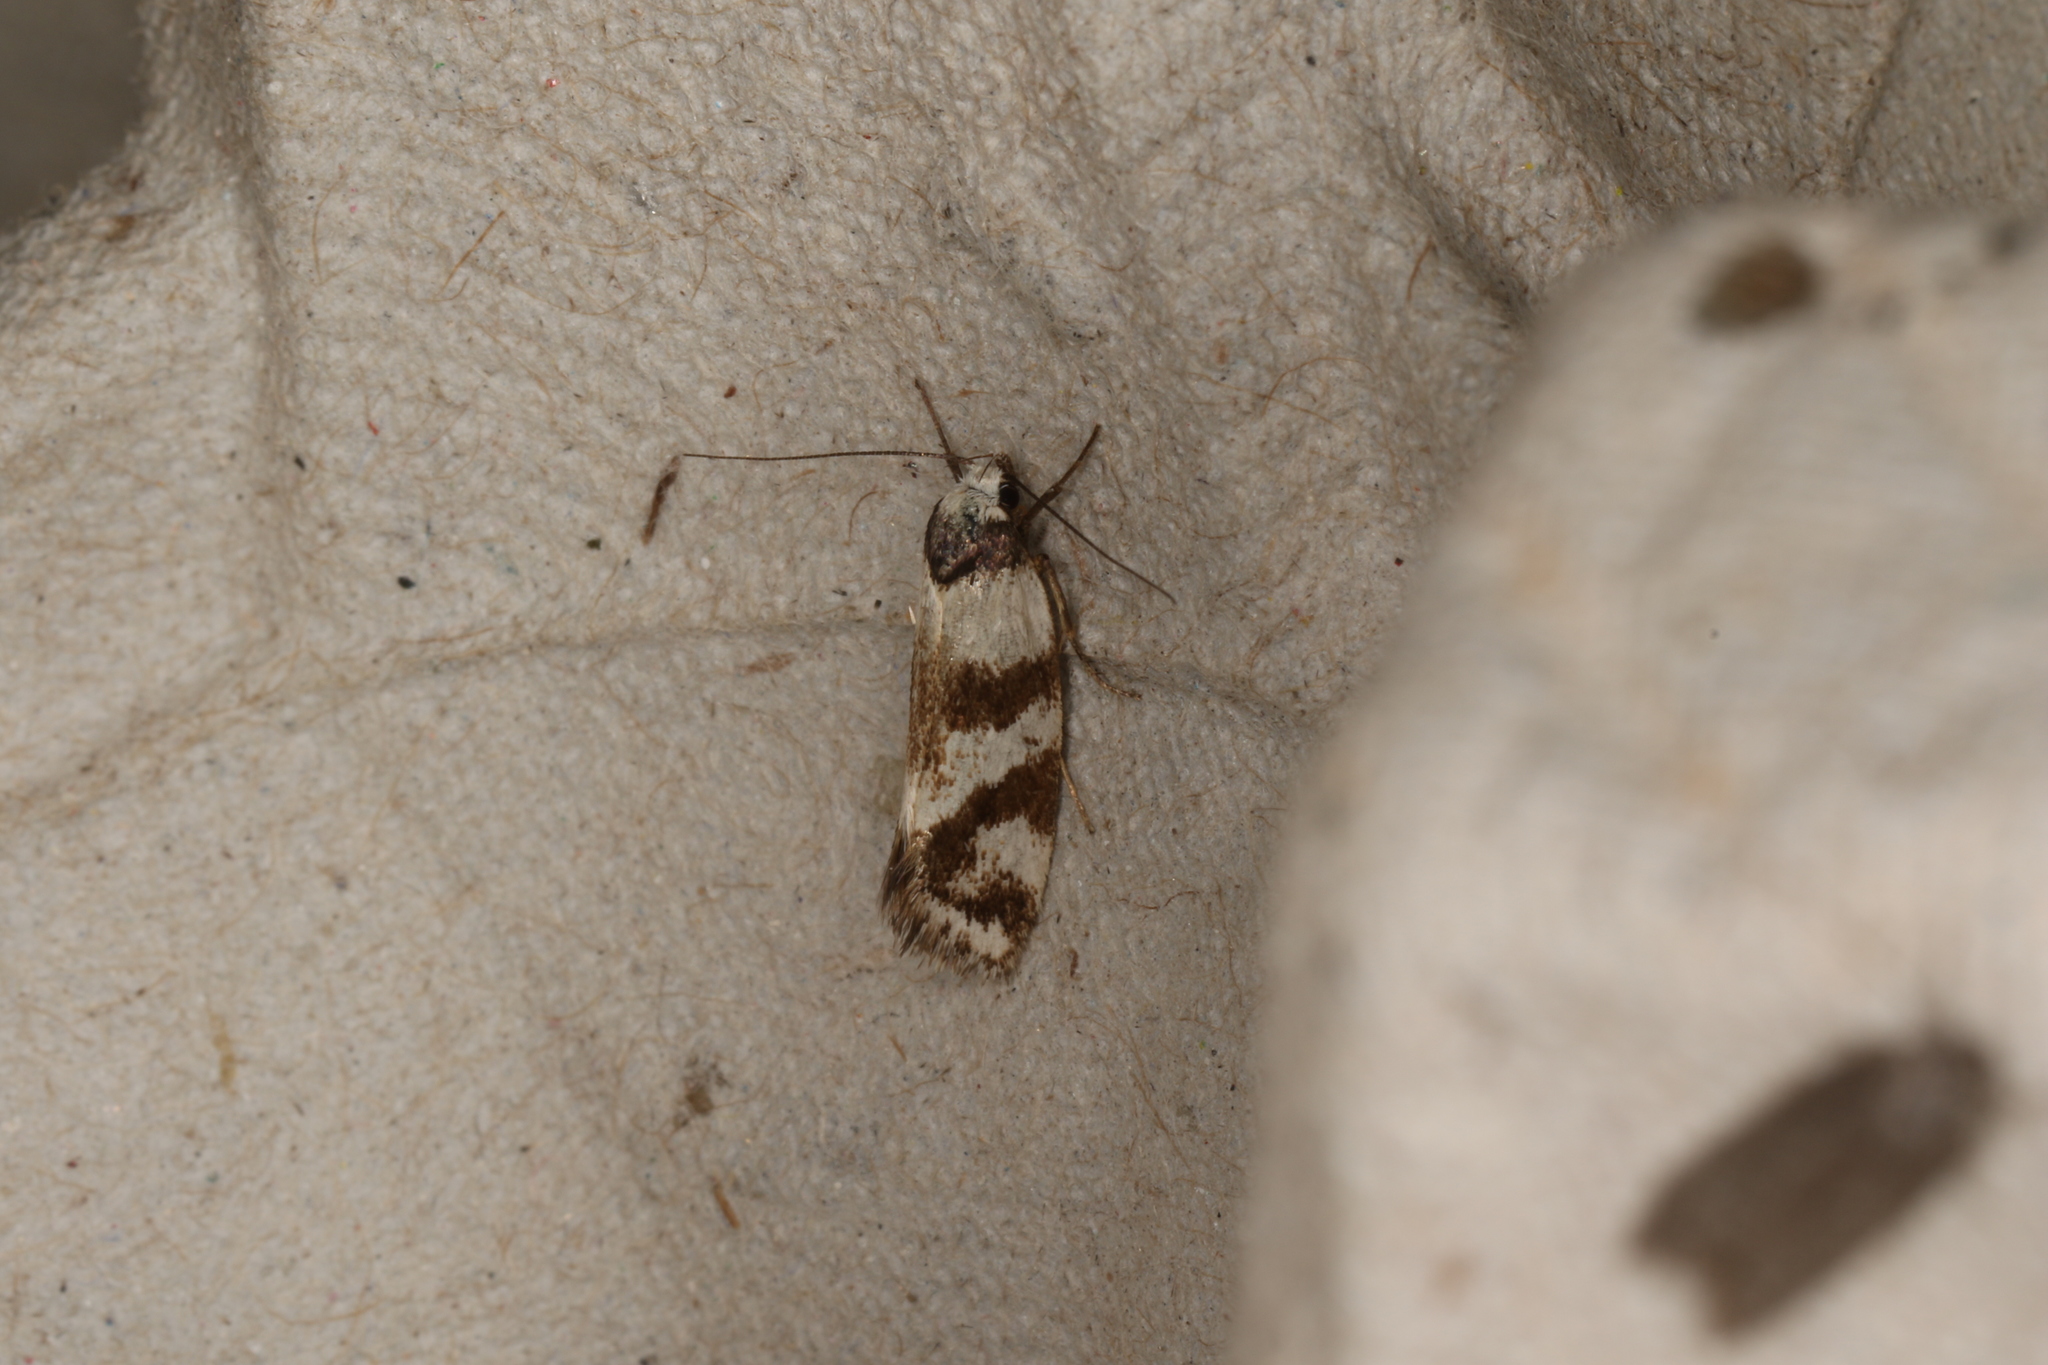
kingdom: Animalia
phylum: Arthropoda
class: Insecta
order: Lepidoptera
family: Oecophoridae
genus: Isomoralla
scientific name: Isomoralla eriscota
